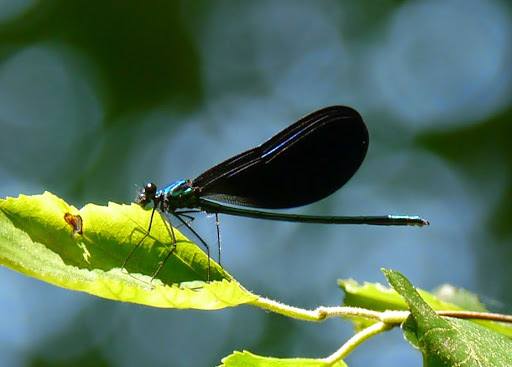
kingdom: Animalia
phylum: Arthropoda
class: Insecta
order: Odonata
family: Calopterygidae
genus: Calopteryx
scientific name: Calopteryx maculata
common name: Ebony jewelwing
